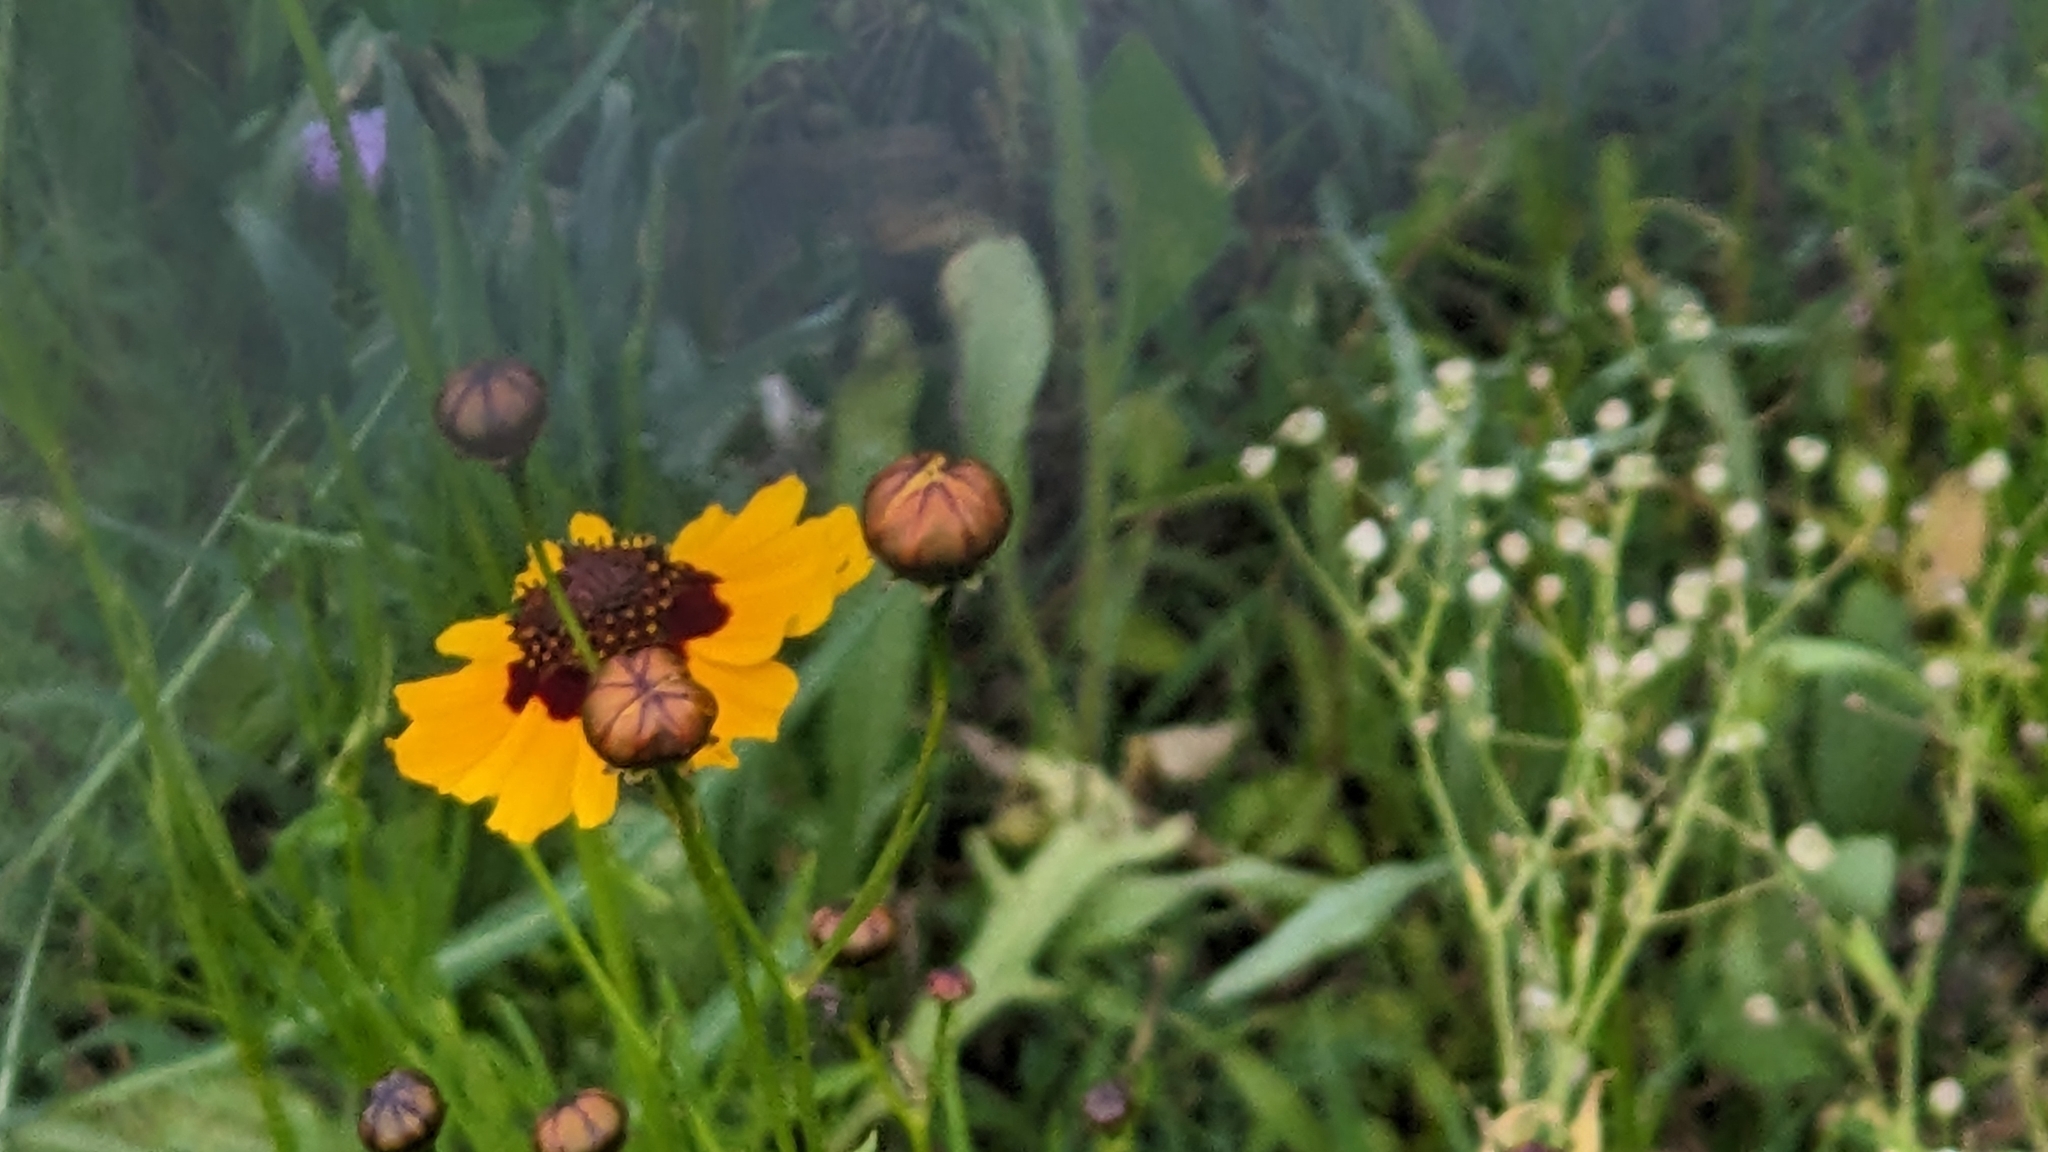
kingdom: Plantae
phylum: Tracheophyta
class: Magnoliopsida
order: Asterales
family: Asteraceae
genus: Coreopsis
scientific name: Coreopsis tinctoria
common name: Garden tickseed
